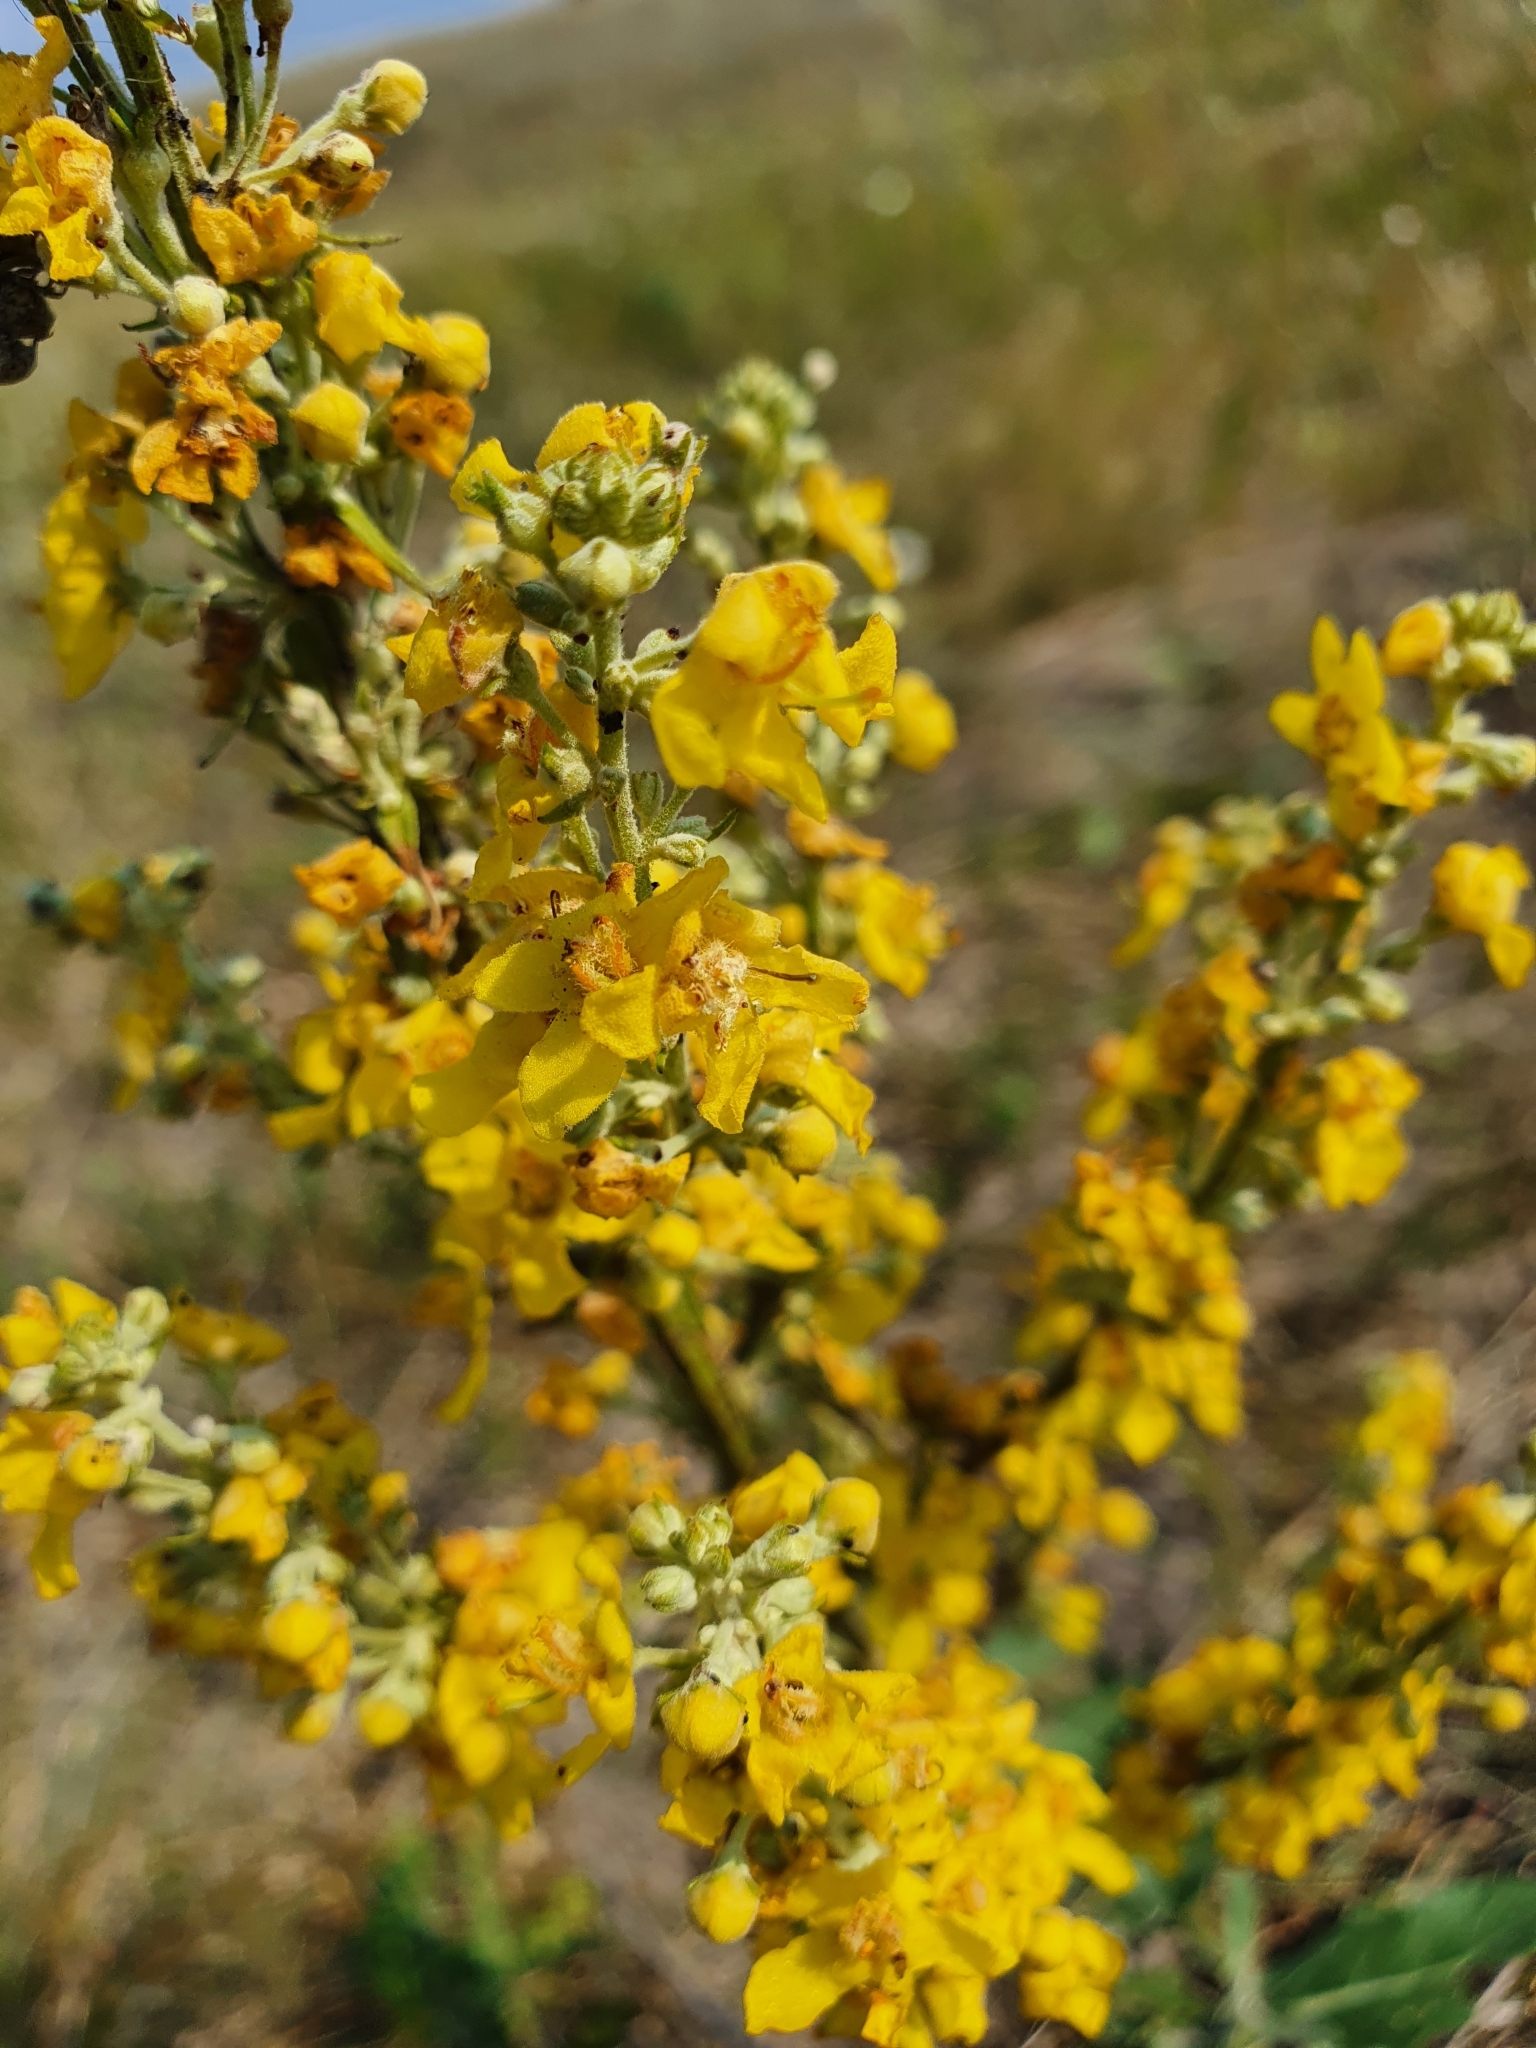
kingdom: Plantae
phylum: Tracheophyta
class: Magnoliopsida
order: Lamiales
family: Scrophulariaceae
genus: Verbascum
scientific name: Verbascum lychnitis
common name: White mullein
